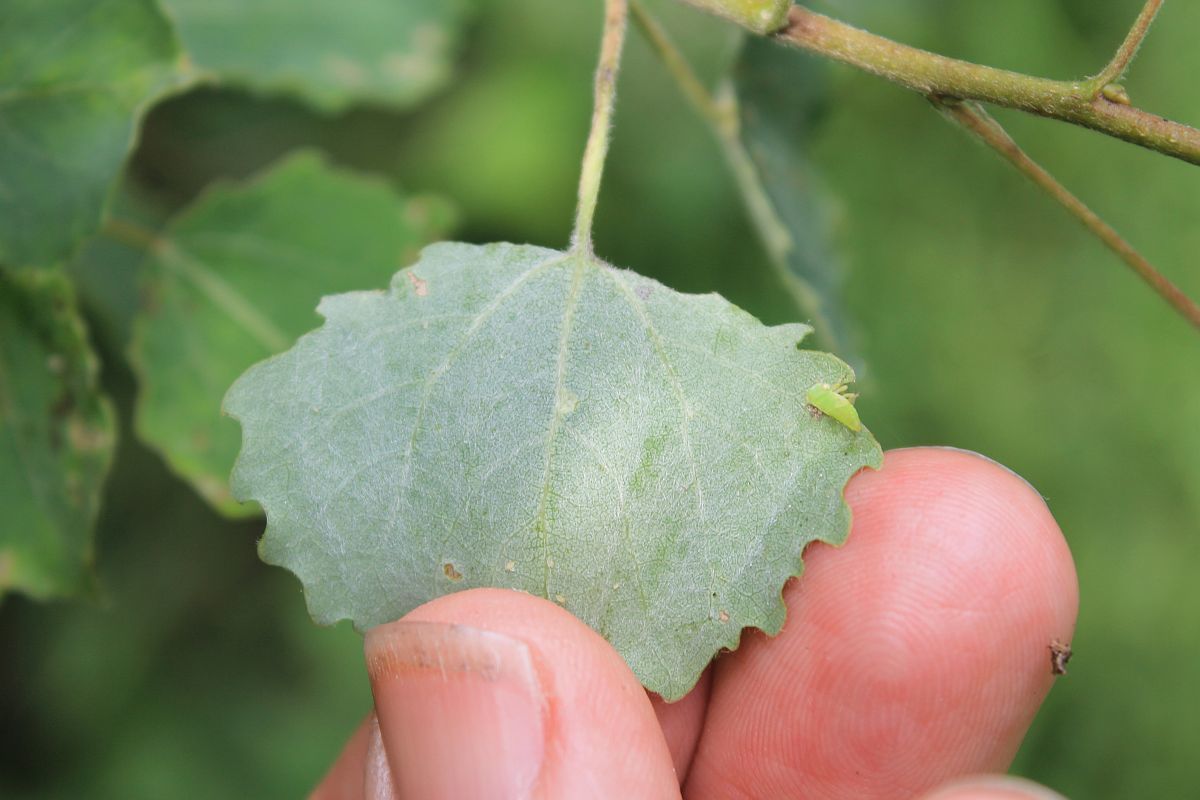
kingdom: Animalia
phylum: Arthropoda
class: Insecta
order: Diptera
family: Cecidomyiidae
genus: Harmandiola
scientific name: Harmandiola tremulae
